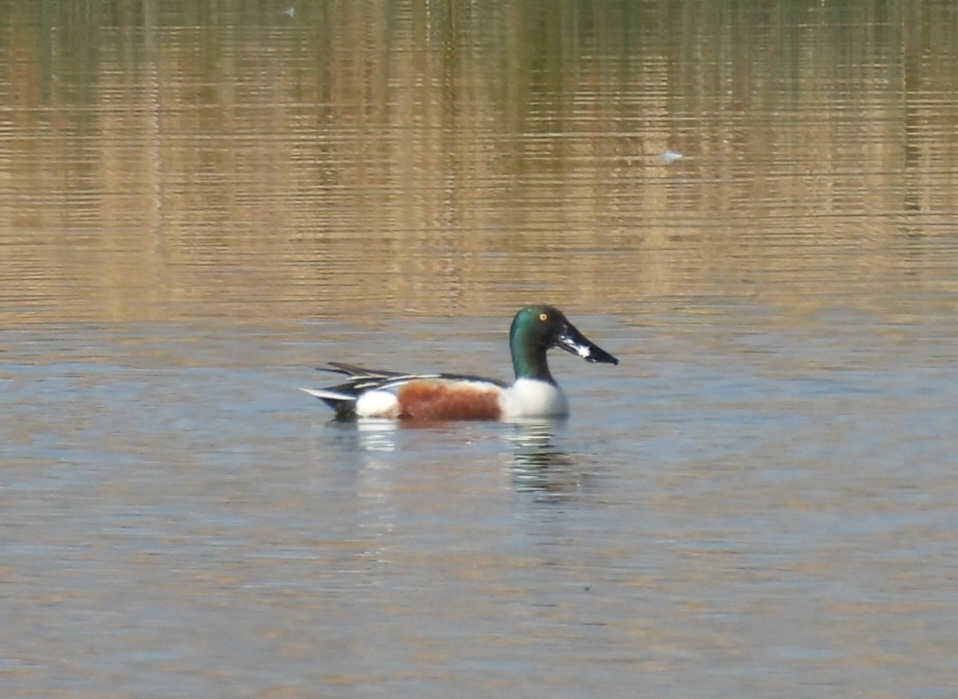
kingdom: Animalia
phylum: Chordata
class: Aves
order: Anseriformes
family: Anatidae
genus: Spatula
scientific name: Spatula clypeata
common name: Northern shoveler
